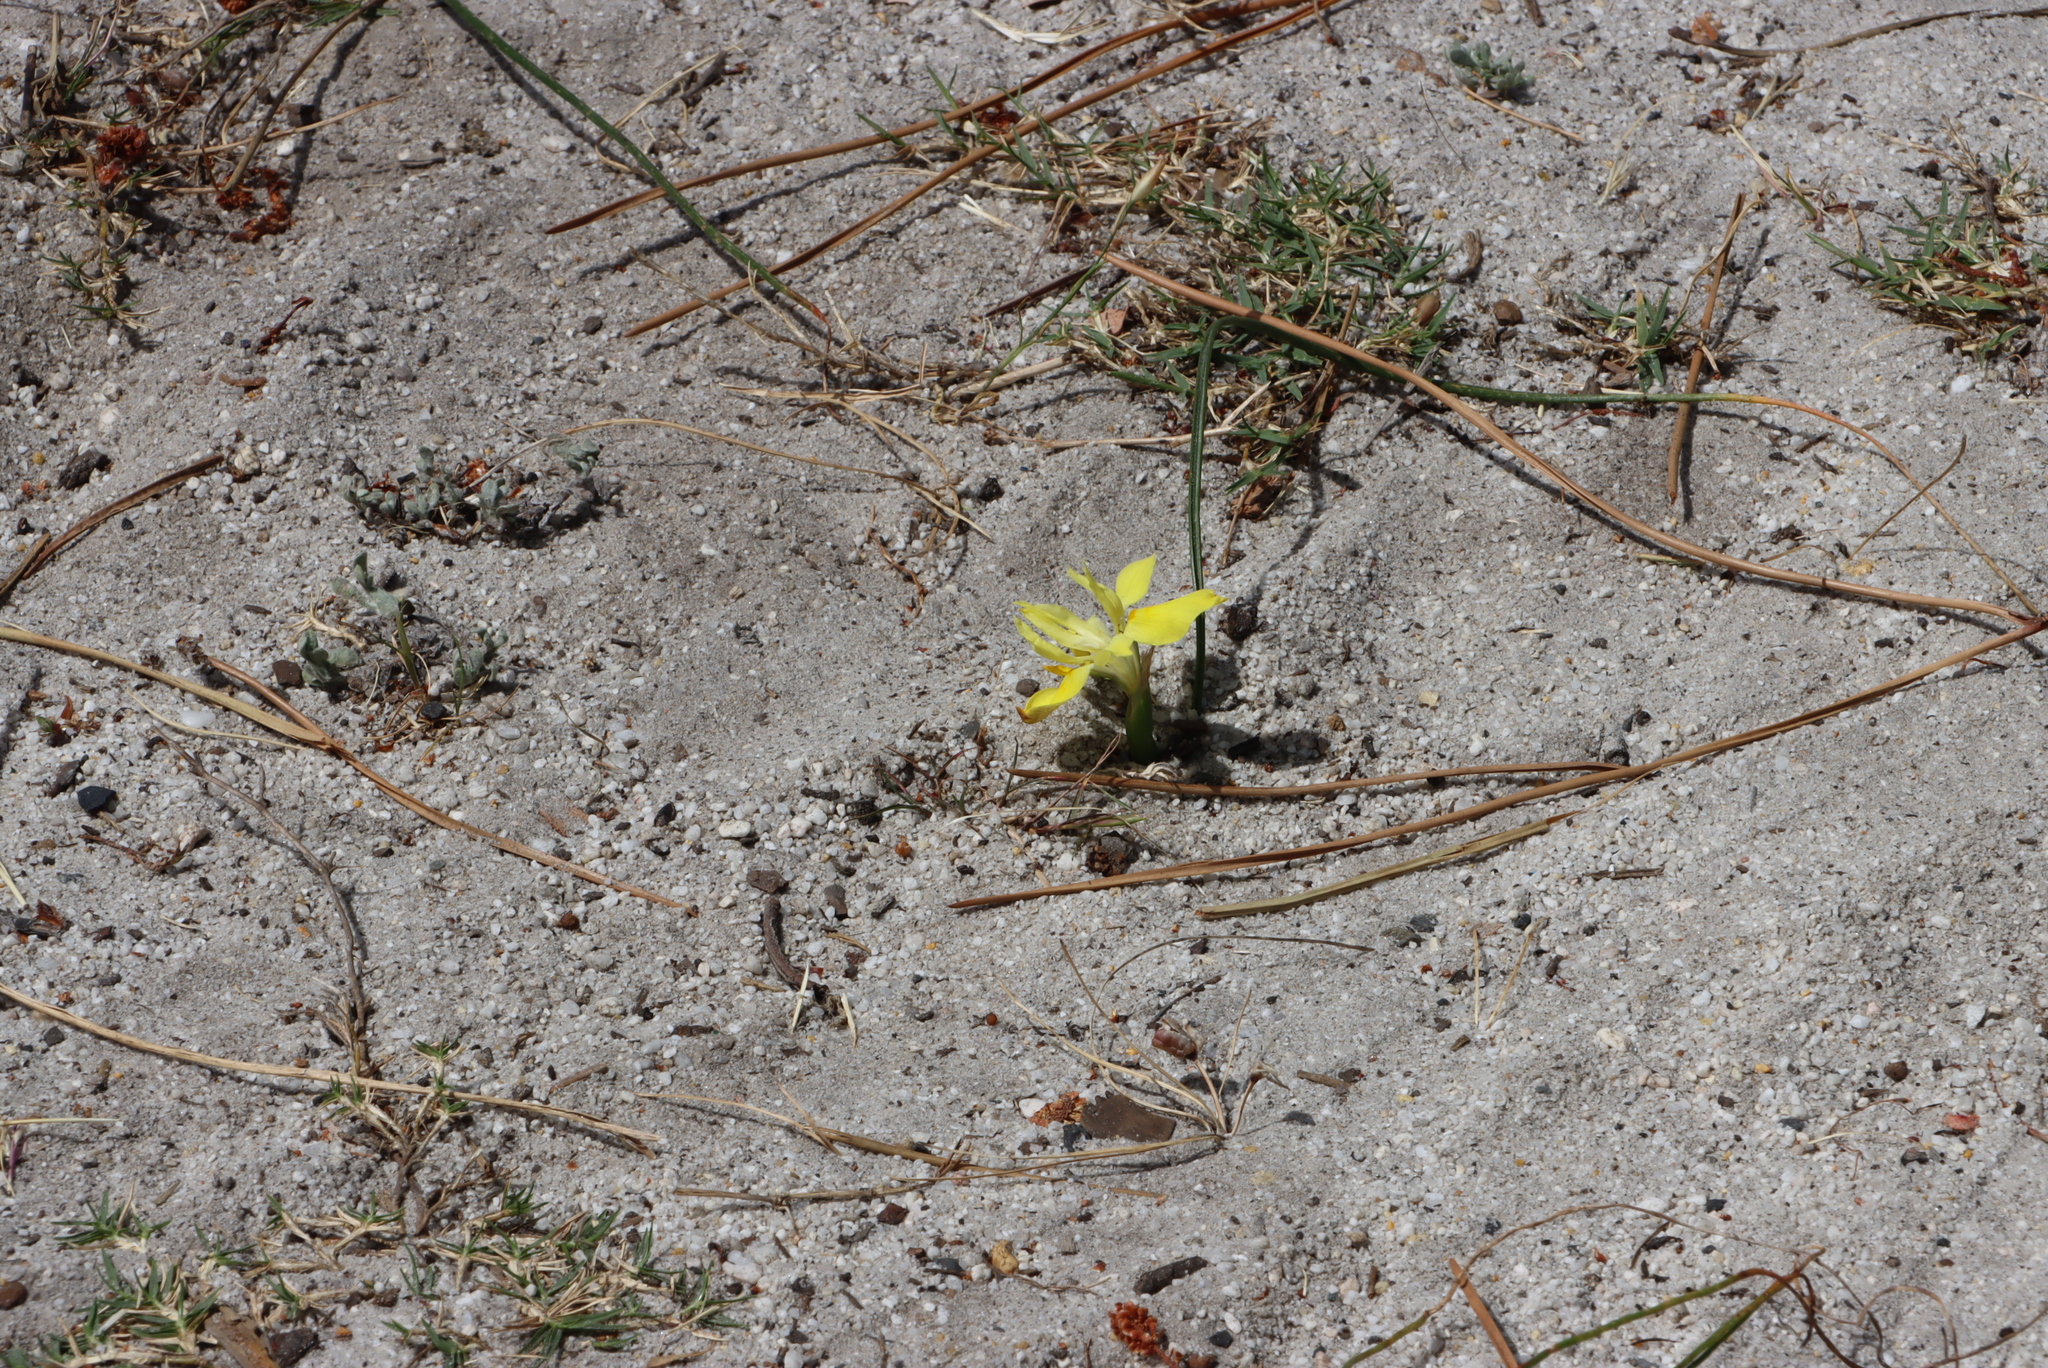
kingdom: Plantae
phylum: Tracheophyta
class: Liliopsida
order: Asparagales
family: Iridaceae
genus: Moraea
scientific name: Moraea fugax
